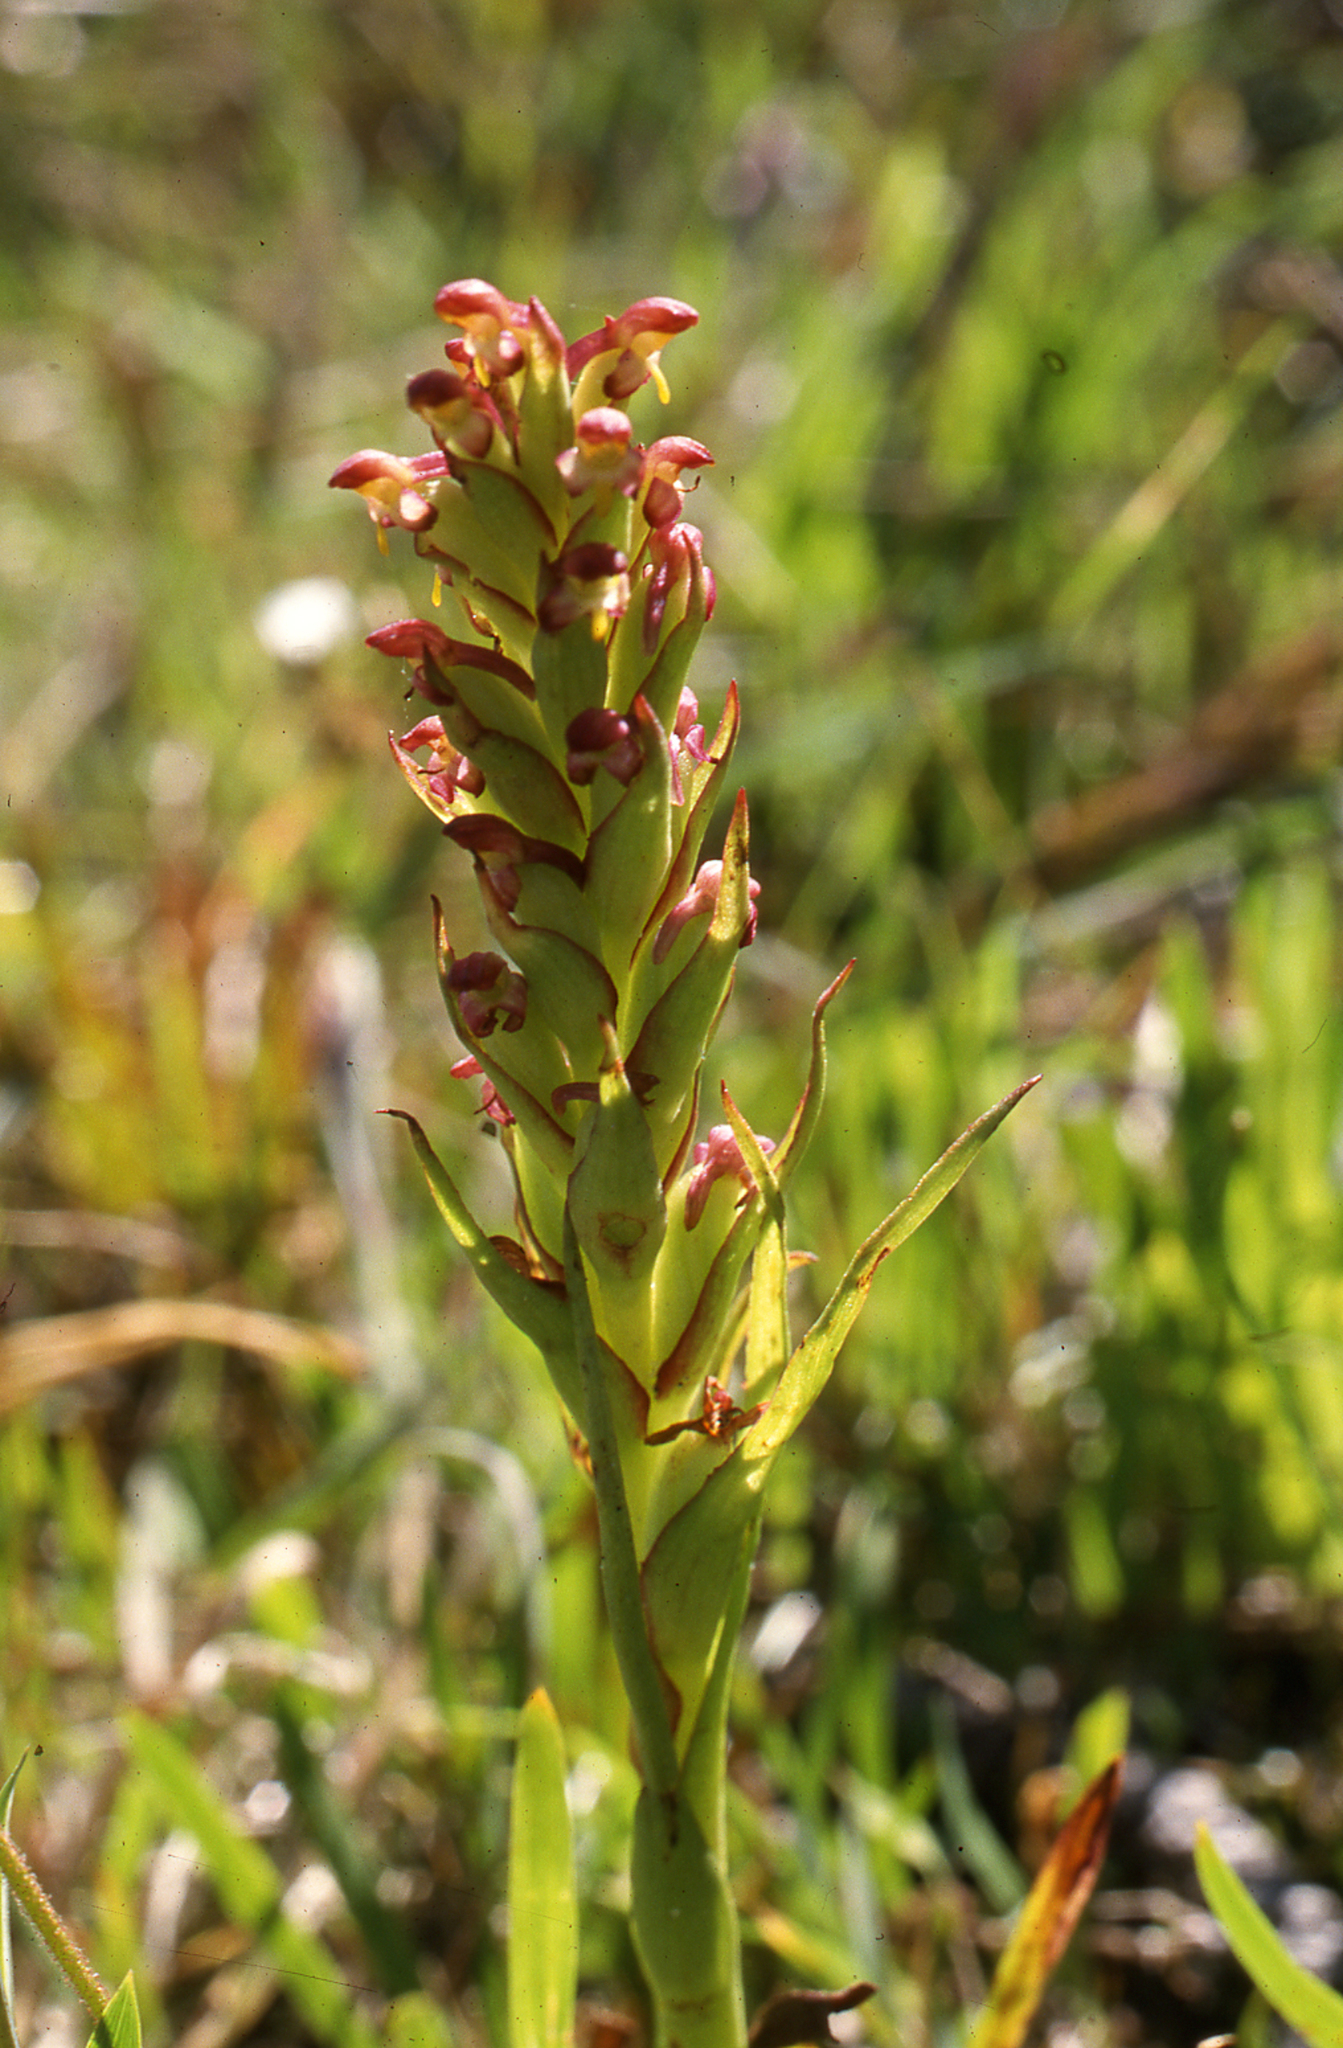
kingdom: Plantae
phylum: Tracheophyta
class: Liliopsida
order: Asparagales
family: Orchidaceae
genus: Disa
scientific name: Disa bracteata
